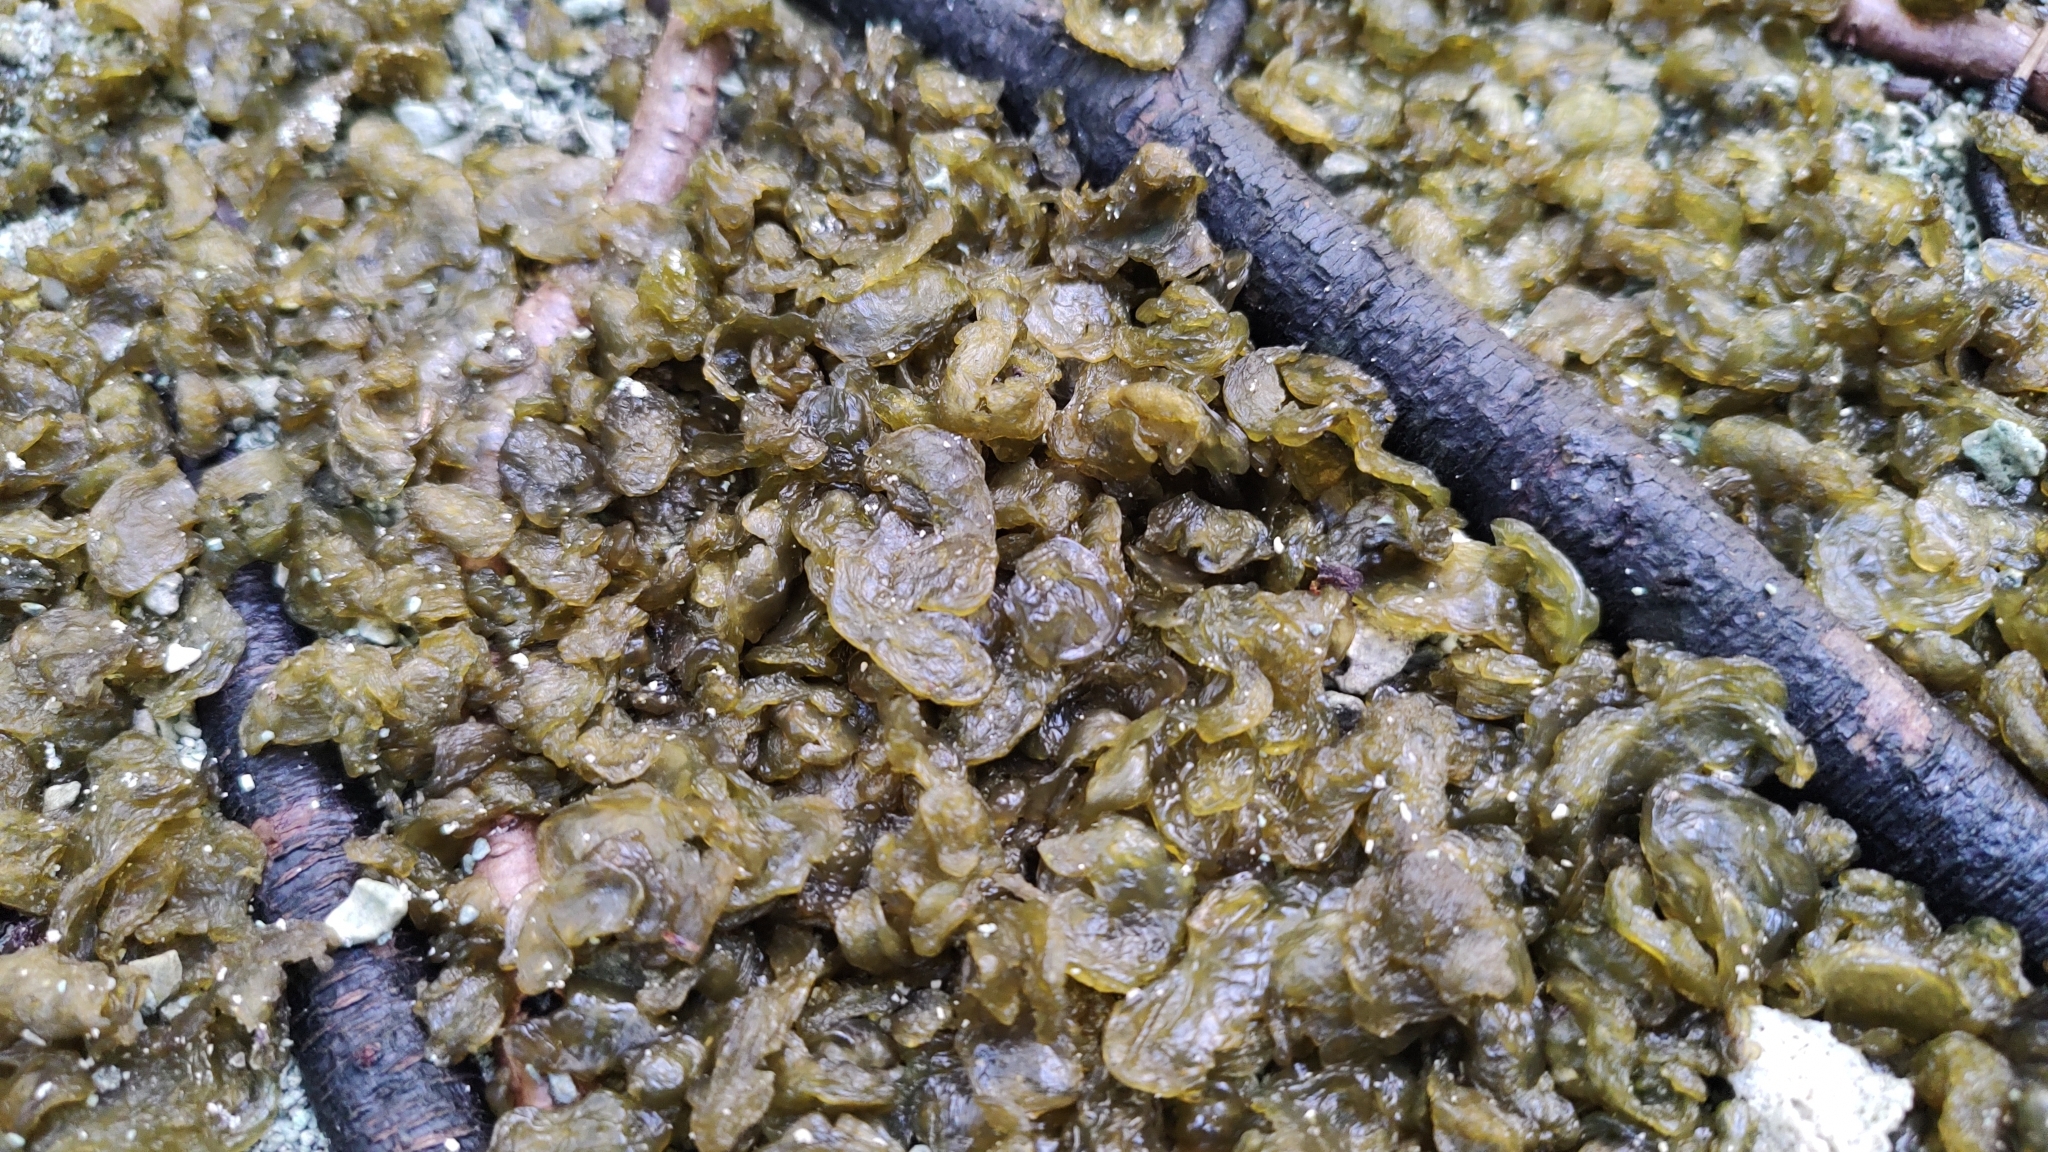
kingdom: Bacteria
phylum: Cyanobacteria
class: Cyanobacteriia
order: Cyanobacteriales
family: Nostocaceae
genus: Nostoc
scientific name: Nostoc commune
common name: Star jelly
